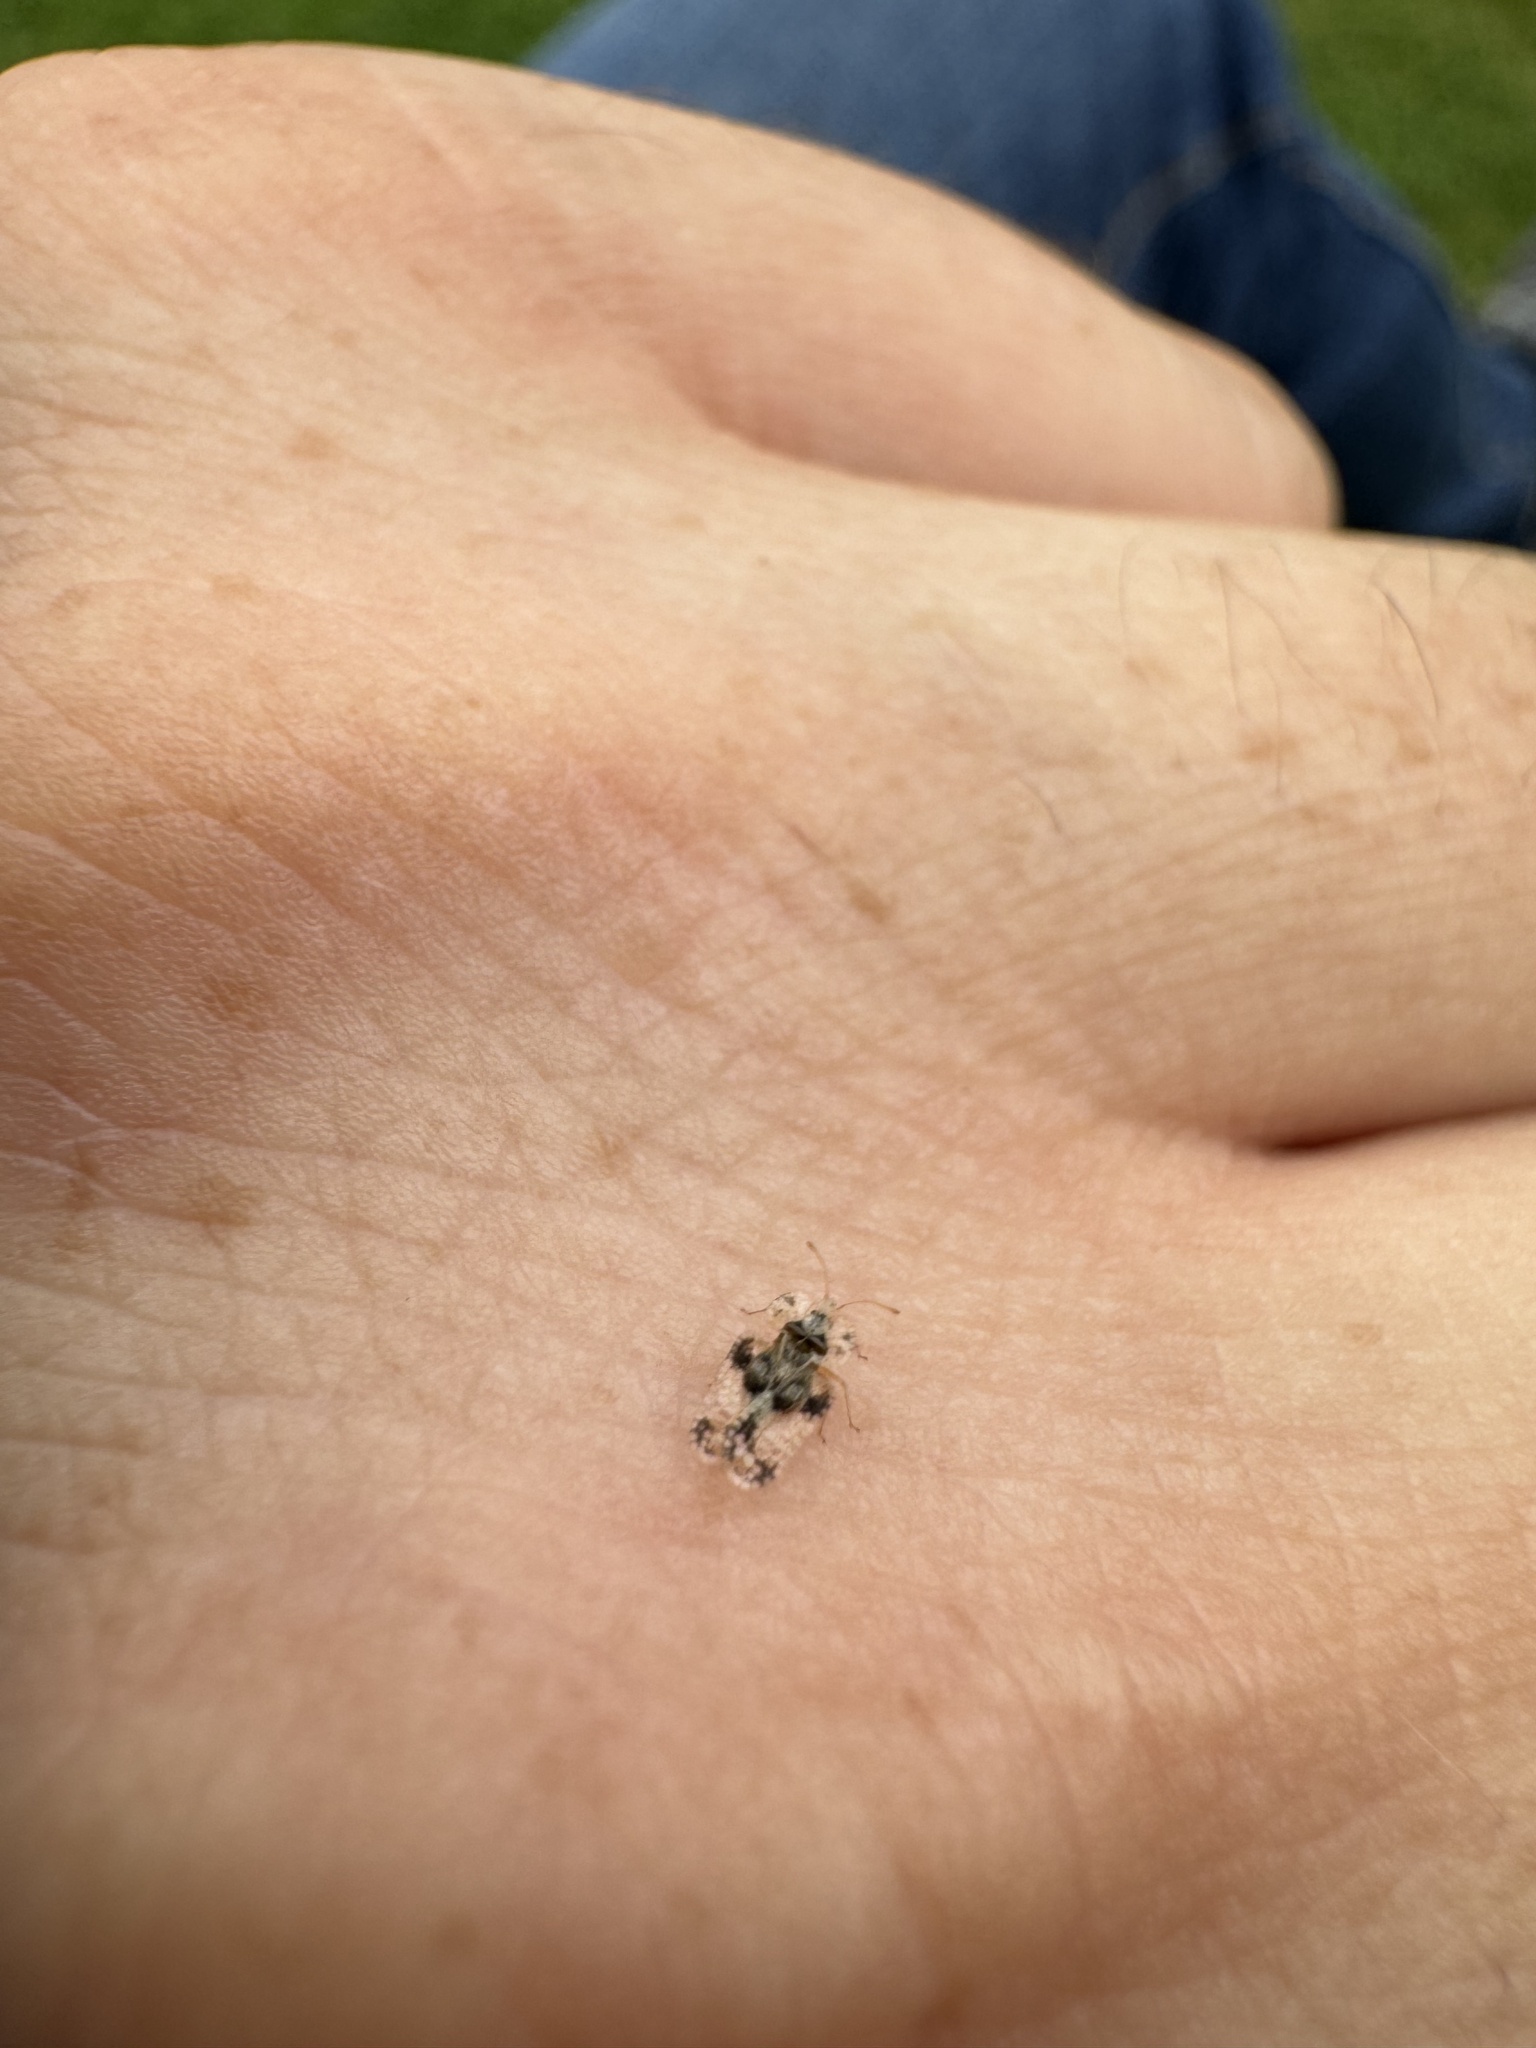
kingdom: Animalia
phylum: Arthropoda
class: Insecta
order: Hemiptera
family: Tingidae
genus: Corythucha
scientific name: Corythucha arcuata
